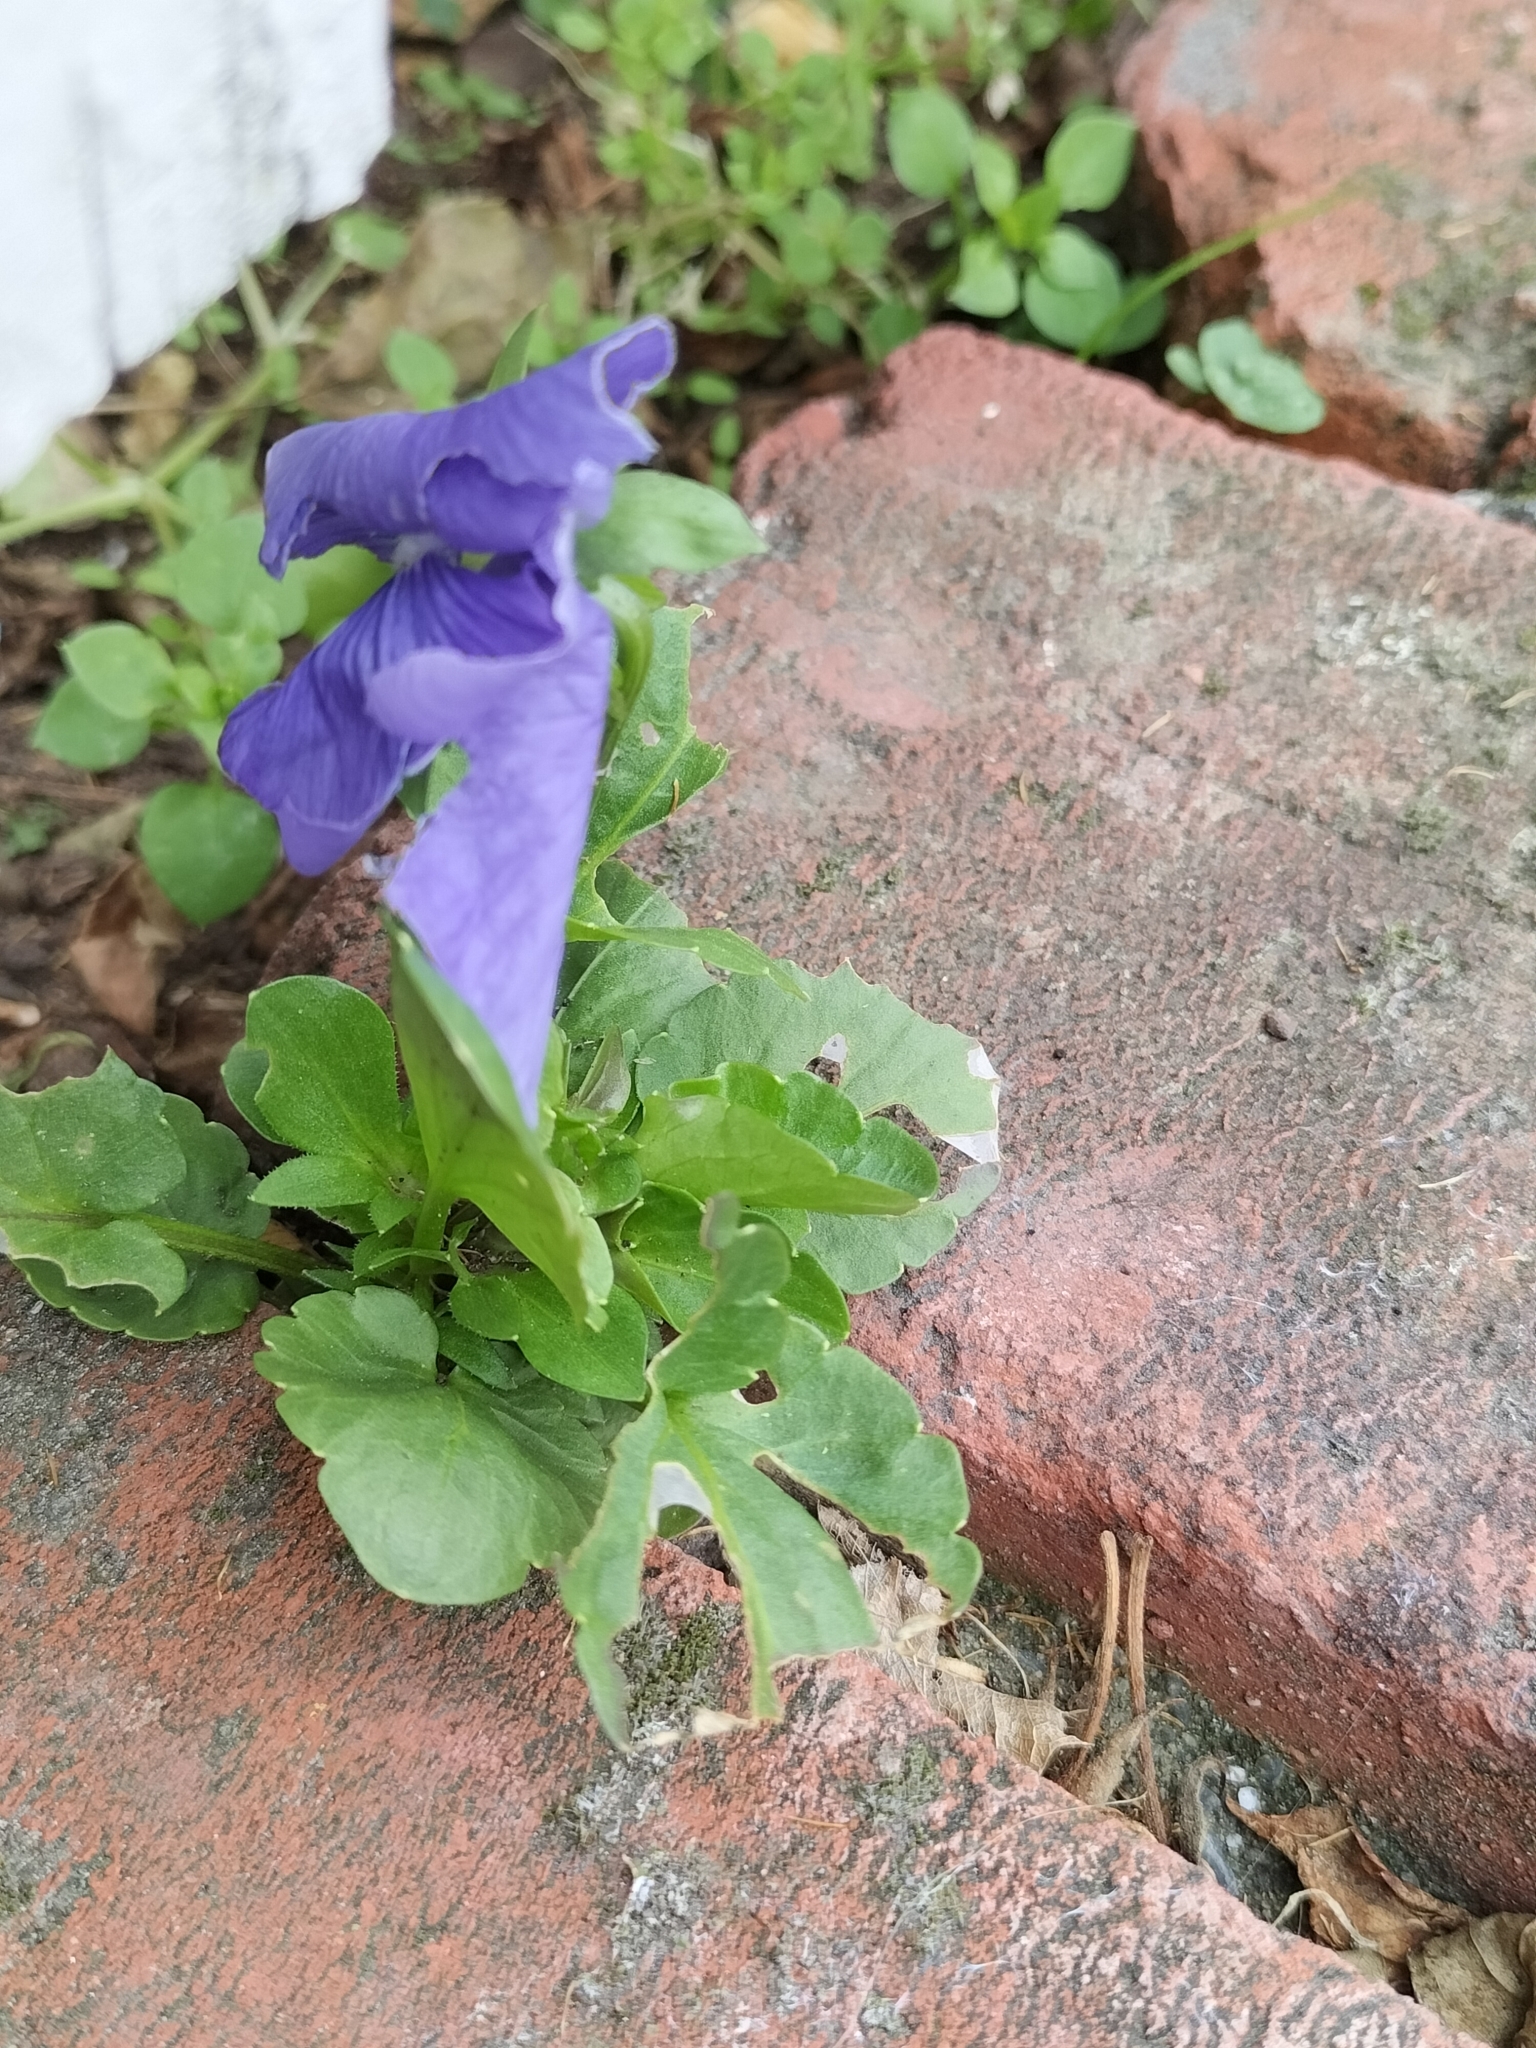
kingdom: Plantae
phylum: Tracheophyta
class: Magnoliopsida
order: Malpighiales
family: Violaceae
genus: Viola
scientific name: Viola wittrockiana
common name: Garden pansy
